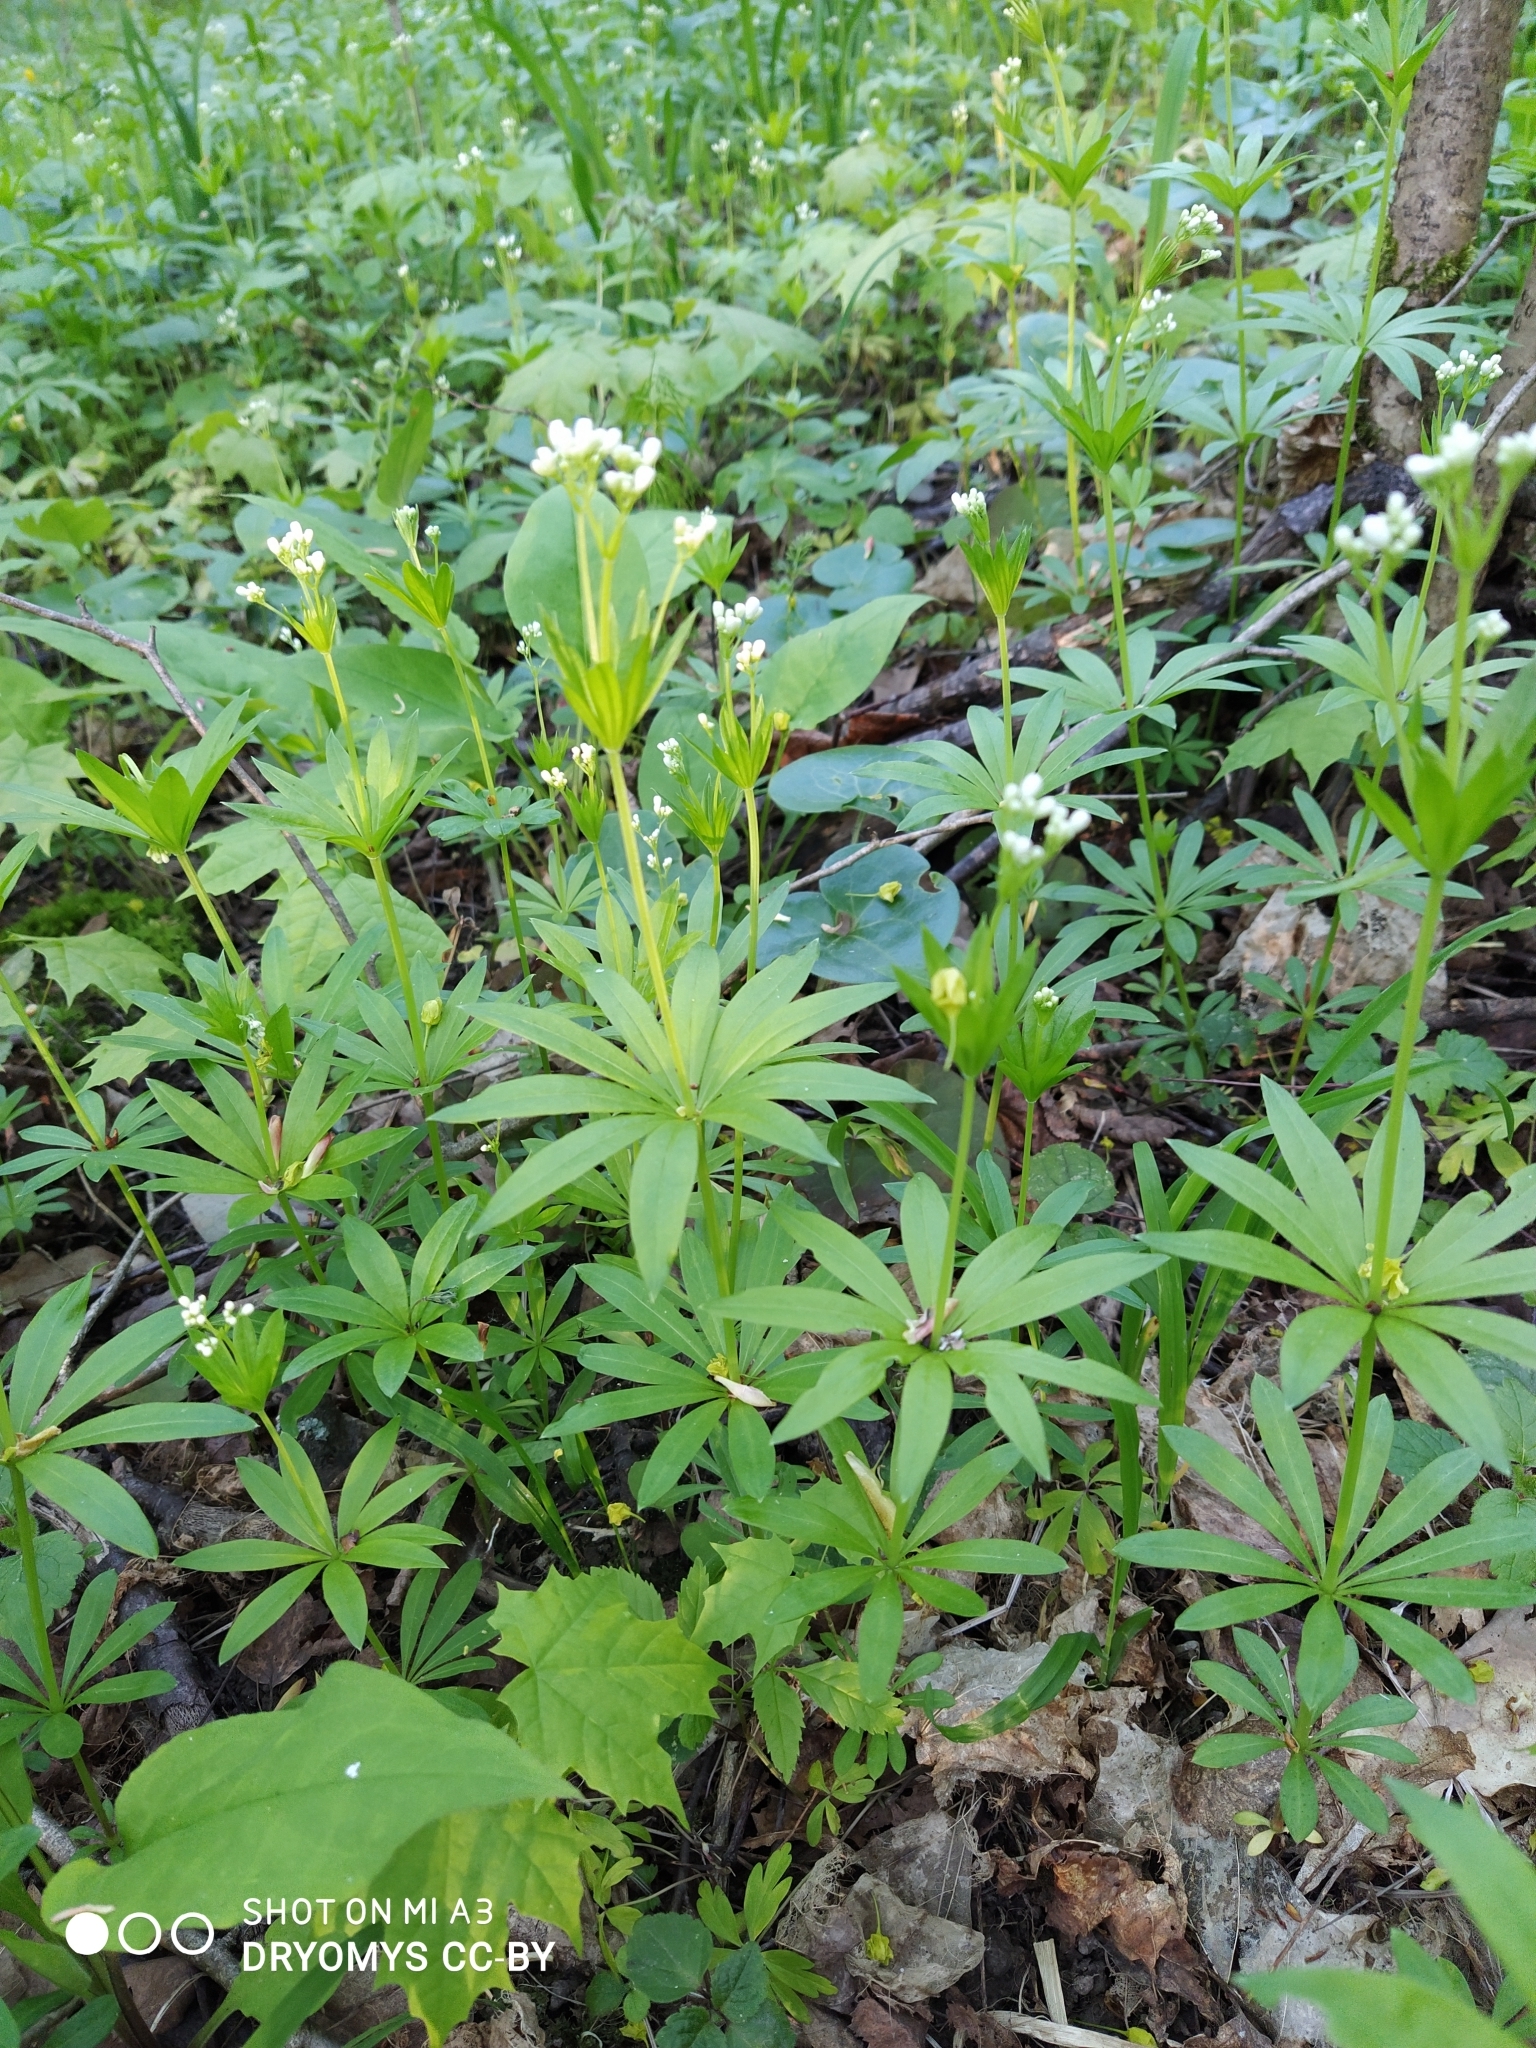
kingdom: Plantae
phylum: Tracheophyta
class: Magnoliopsida
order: Gentianales
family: Rubiaceae
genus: Galium
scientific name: Galium odoratum
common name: Sweet woodruff
